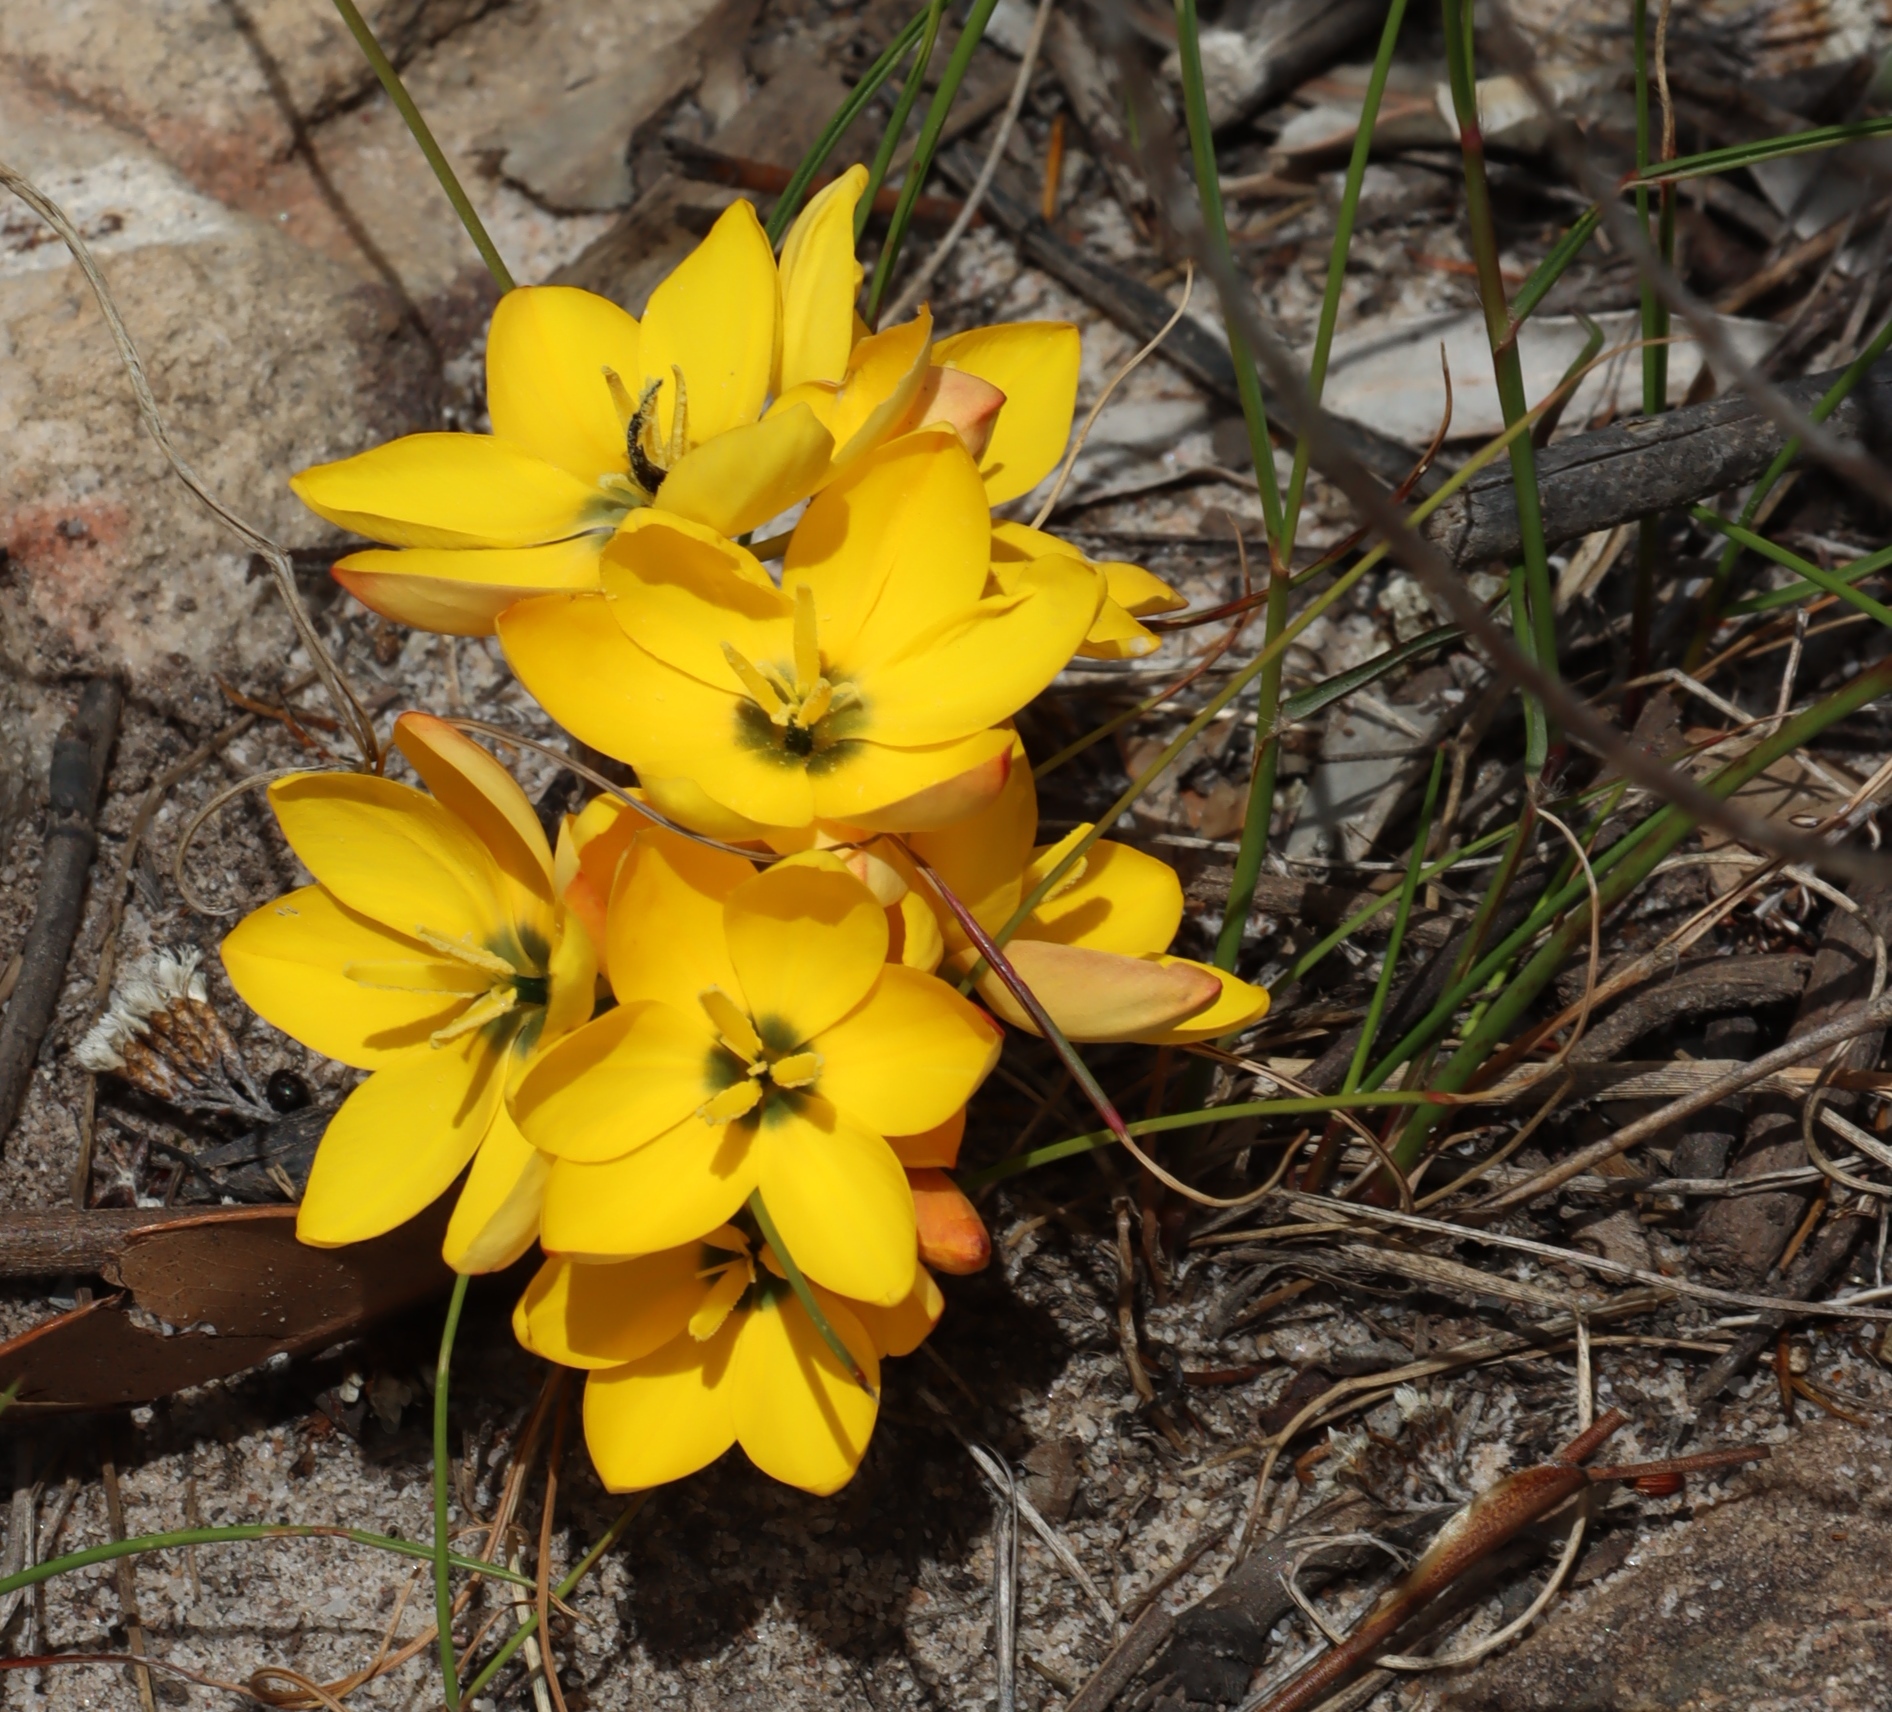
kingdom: Plantae
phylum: Tracheophyta
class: Liliopsida
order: Asparagales
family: Iridaceae
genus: Ixia
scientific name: Ixia dubia
